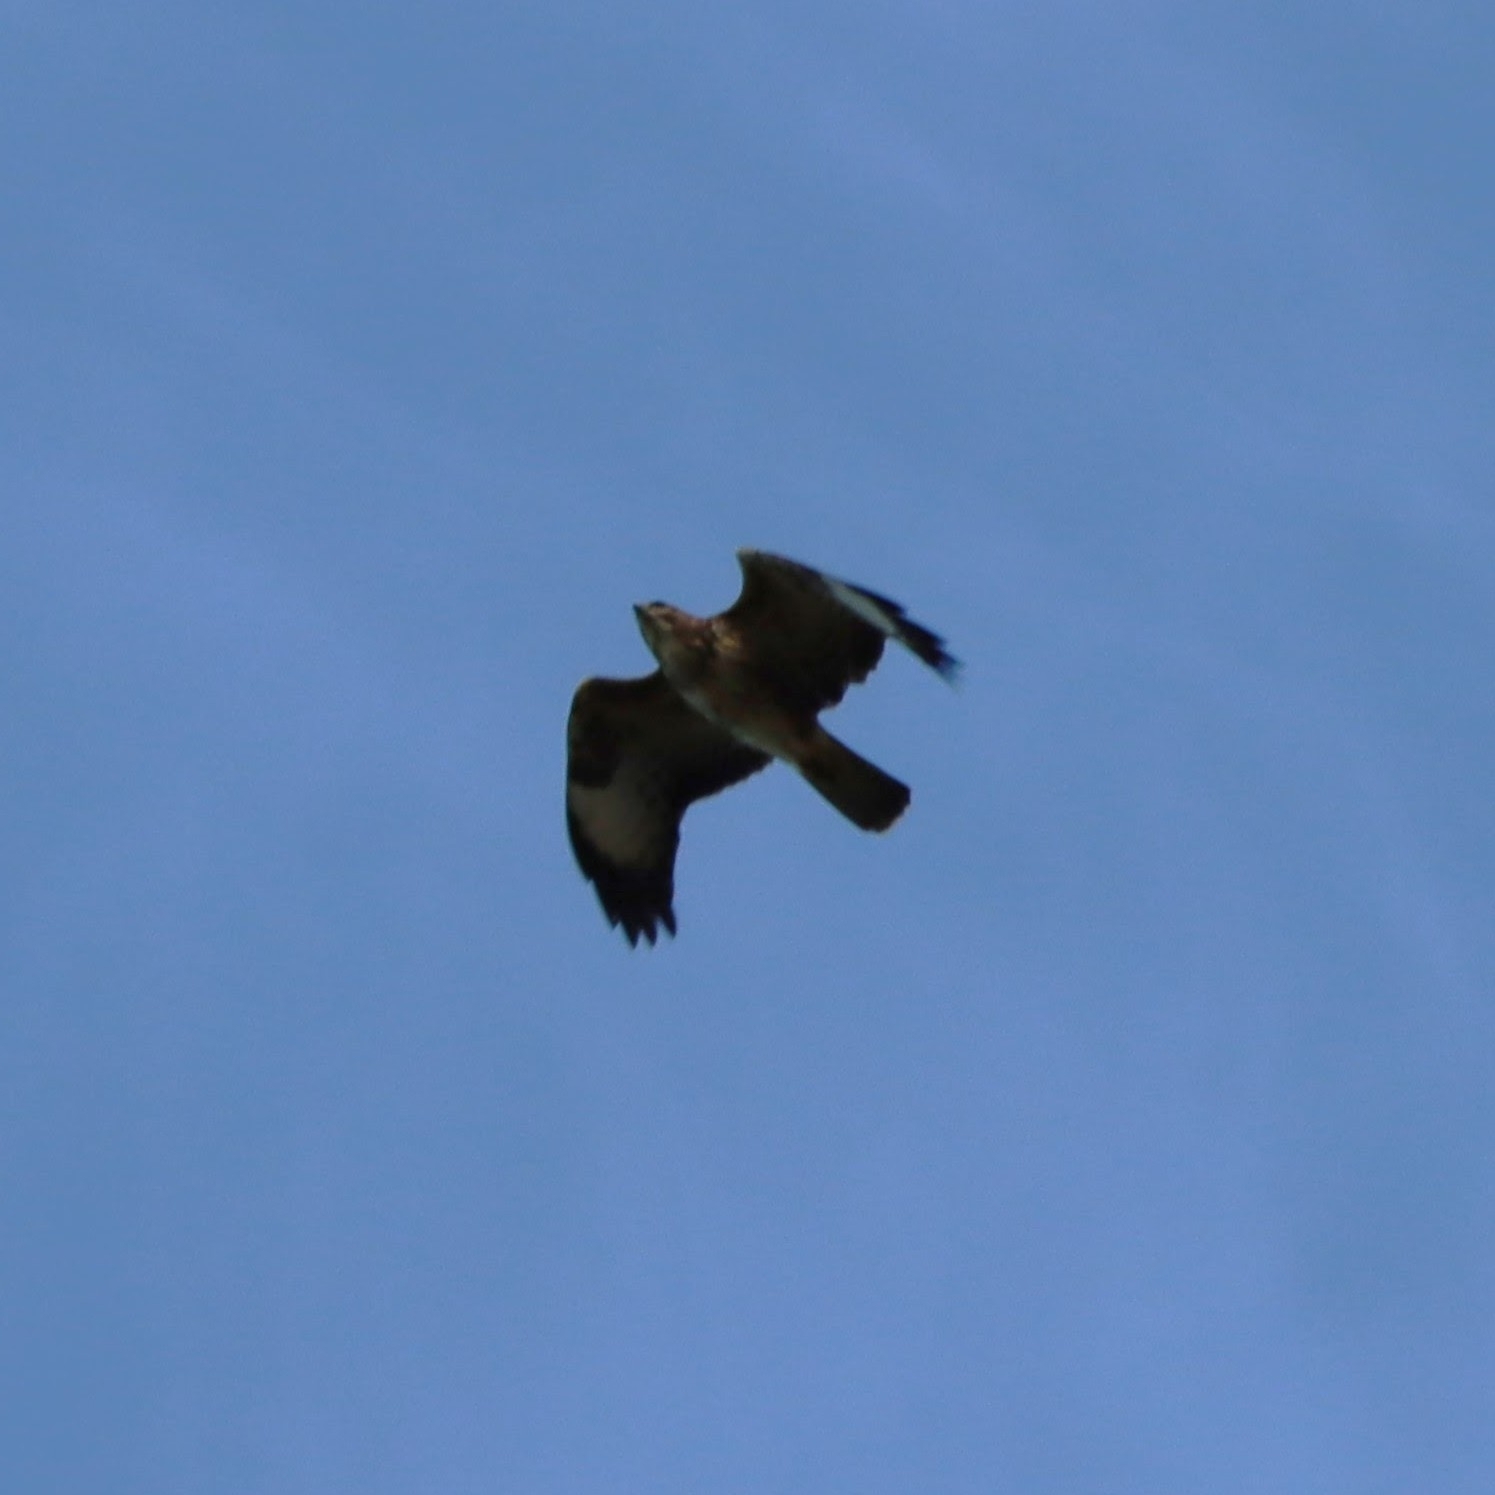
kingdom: Animalia
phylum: Chordata
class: Aves
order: Accipitriformes
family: Accipitridae
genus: Buteo
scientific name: Buteo buteo
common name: Common buzzard
